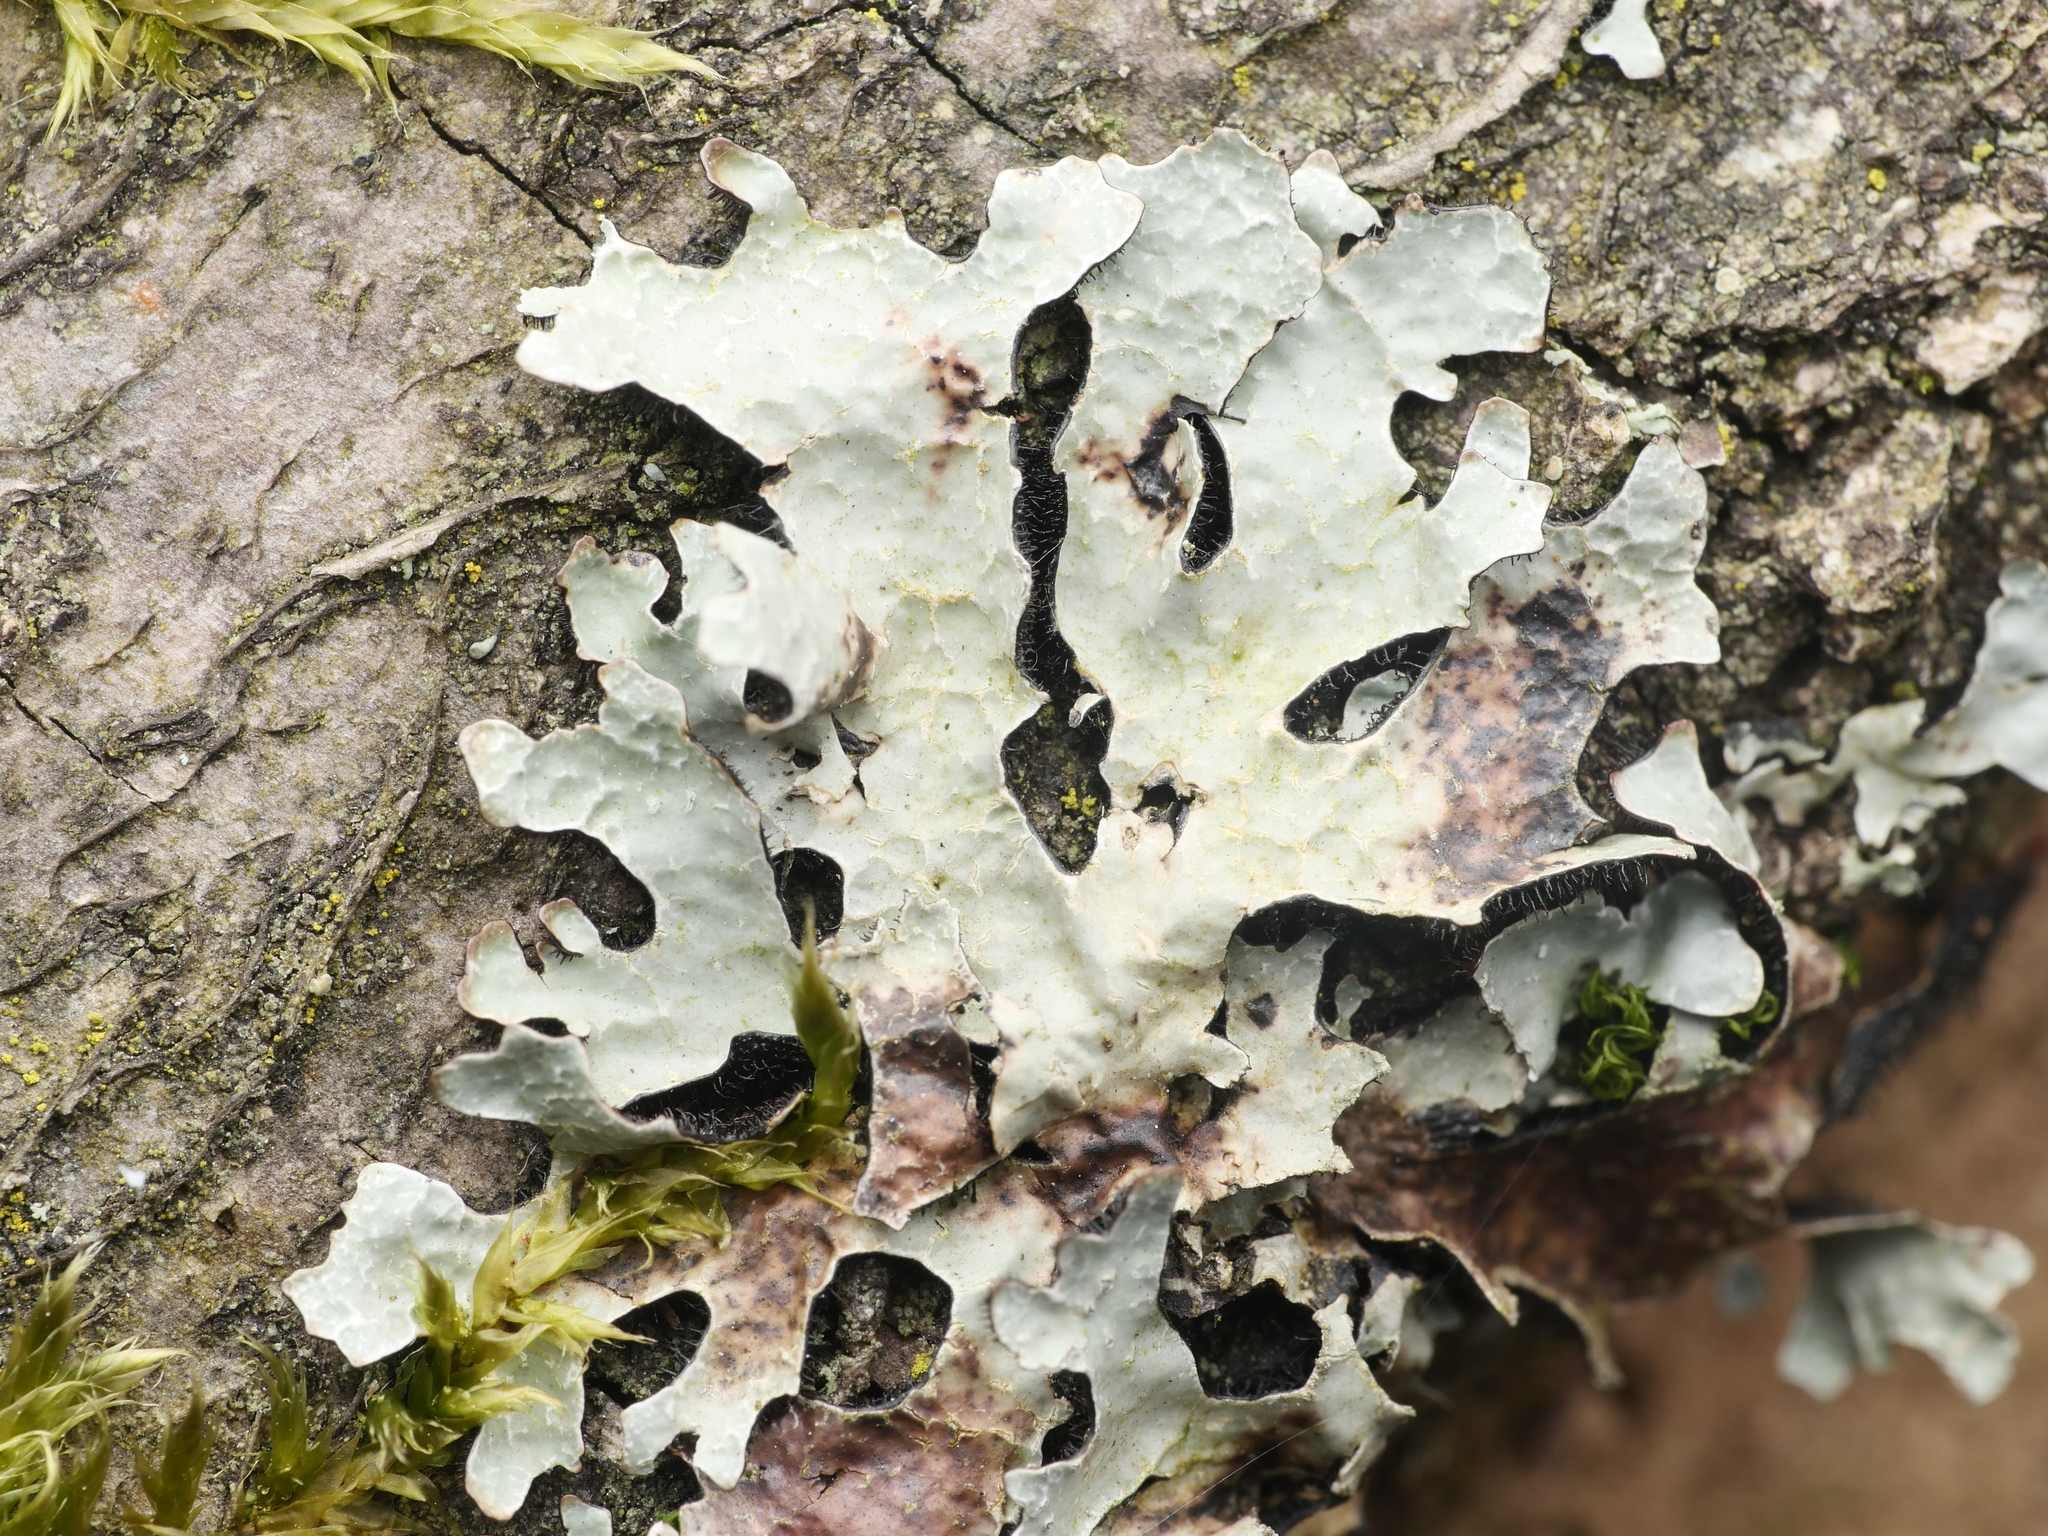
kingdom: Fungi
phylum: Ascomycota
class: Lecanoromycetes
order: Lecanorales
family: Parmeliaceae
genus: Parmelia
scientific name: Parmelia sulcata
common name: Netted shield lichen
